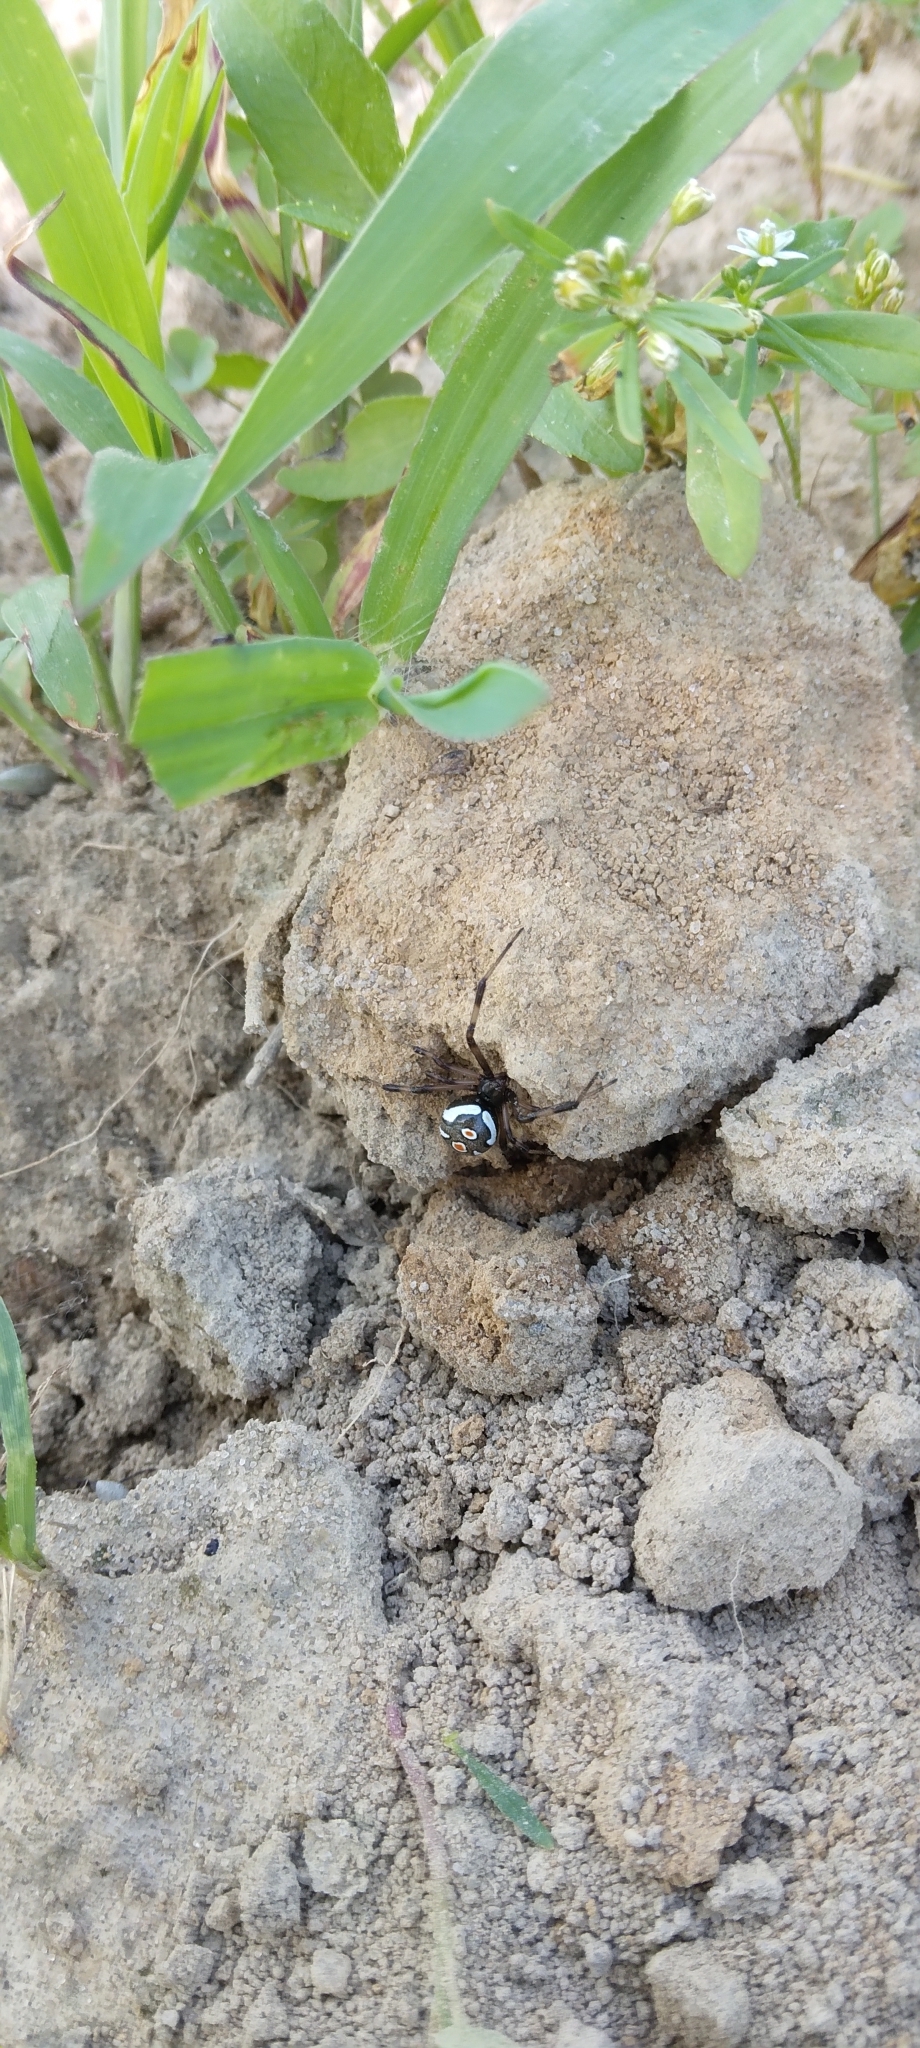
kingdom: Animalia
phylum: Arthropoda
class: Arachnida
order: Araneae
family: Theridiidae
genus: Latrodectus
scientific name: Latrodectus mactans
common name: Cobweb spiders
